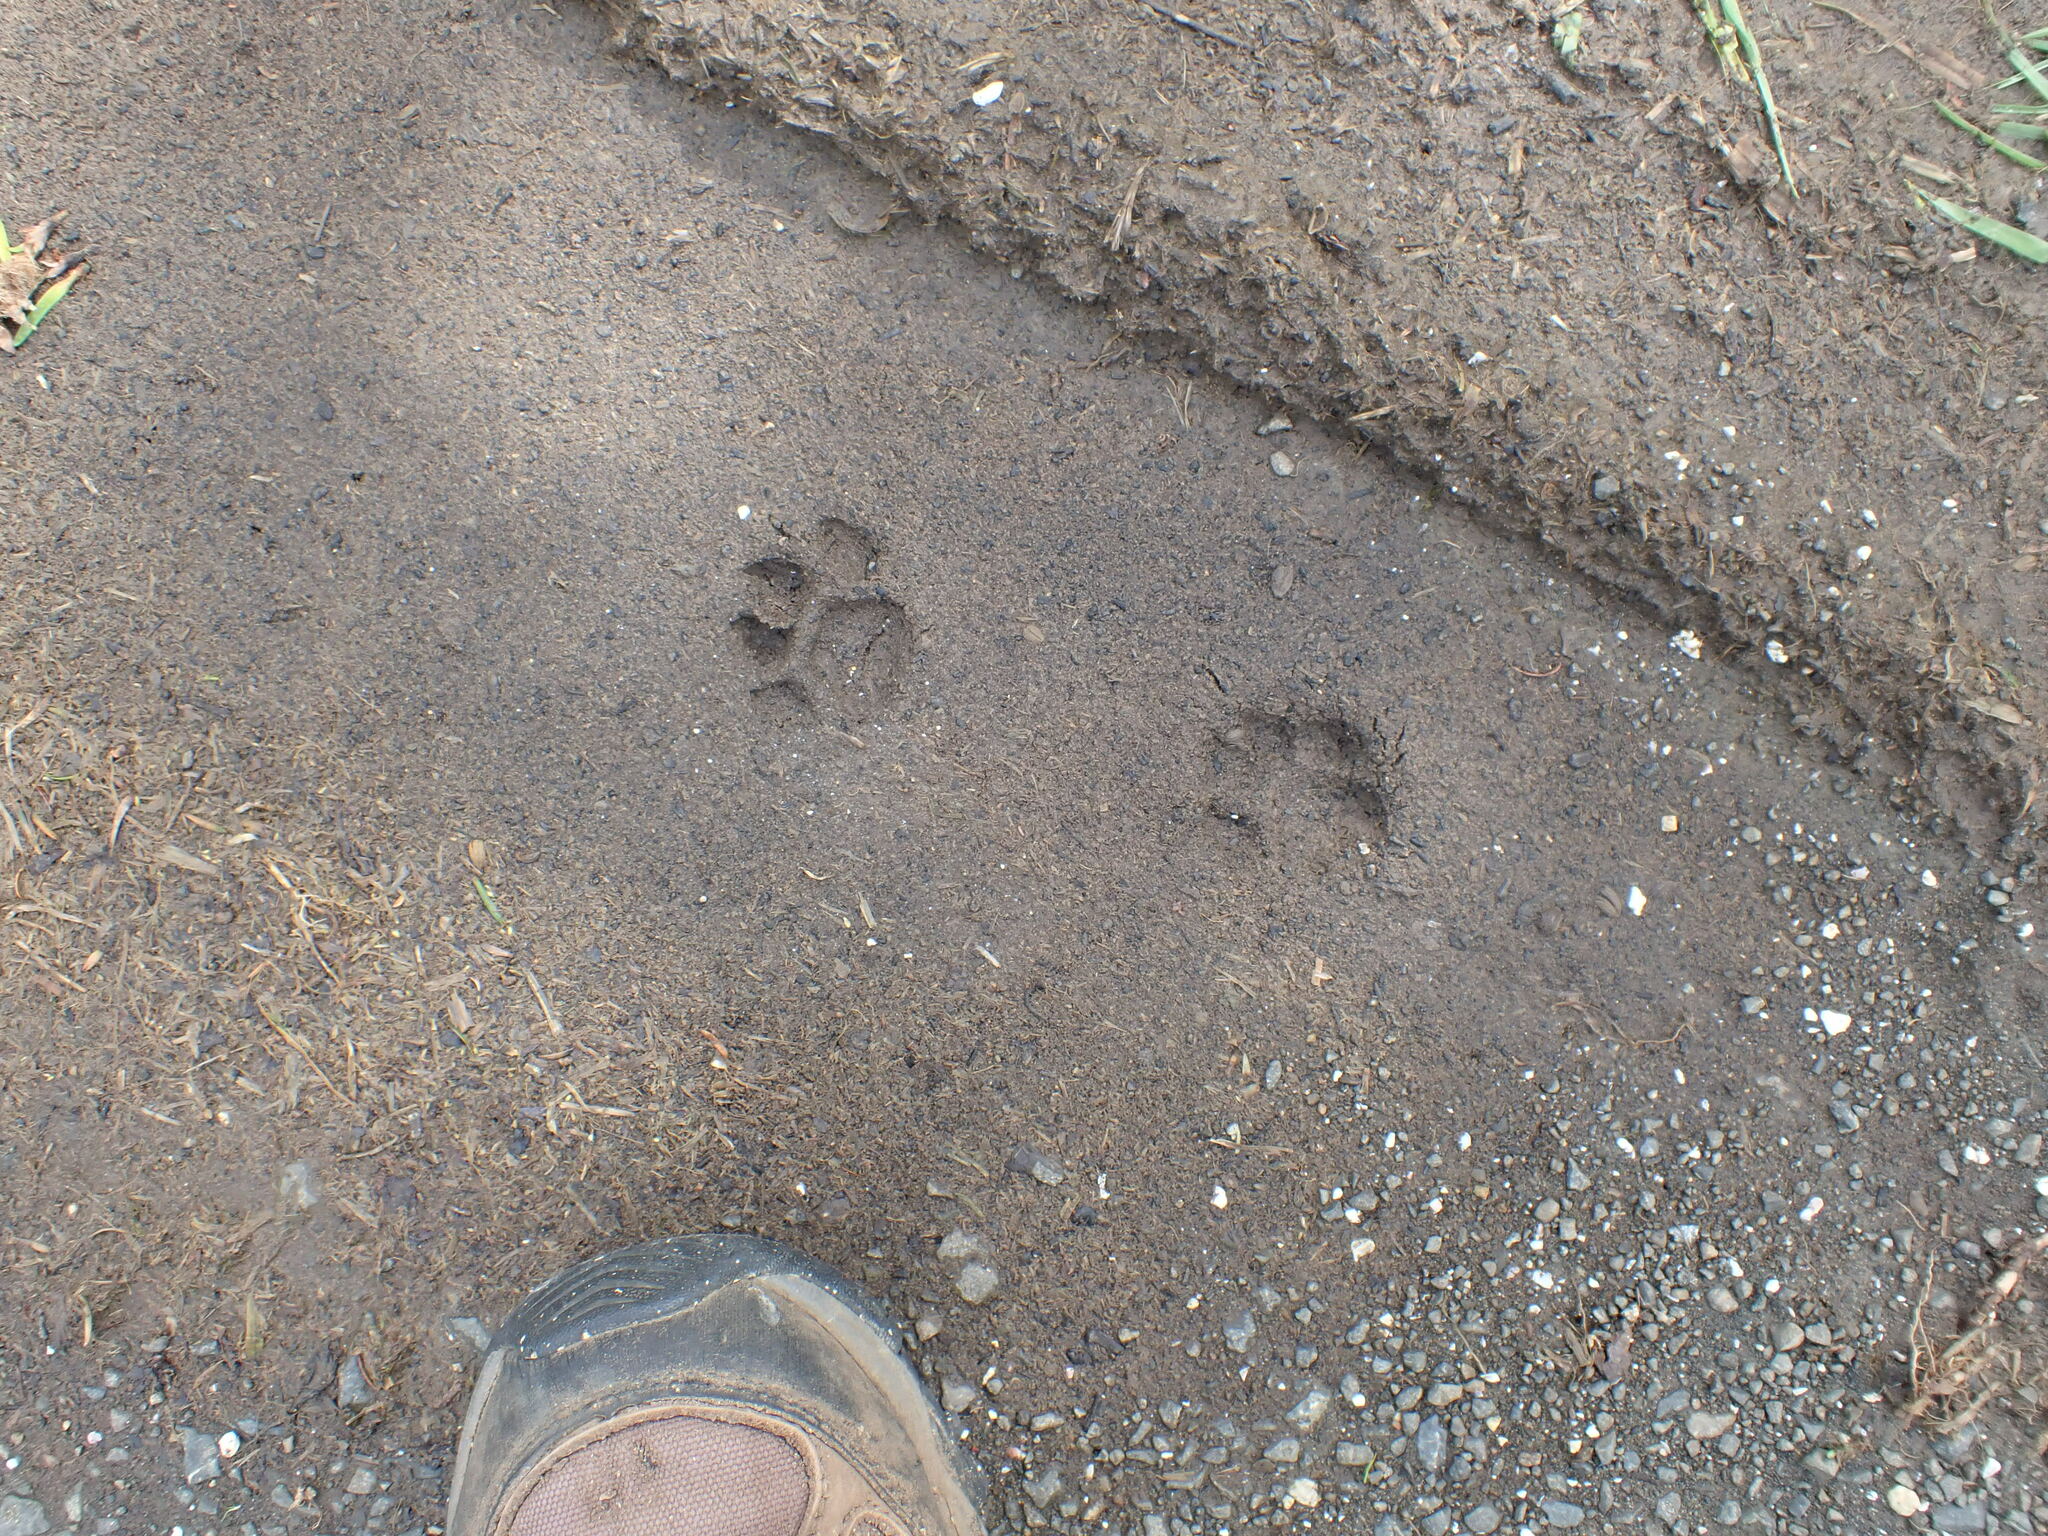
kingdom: Animalia
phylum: Chordata
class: Mammalia
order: Carnivora
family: Felidae
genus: Felis
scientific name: Felis catus
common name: Domestic cat
